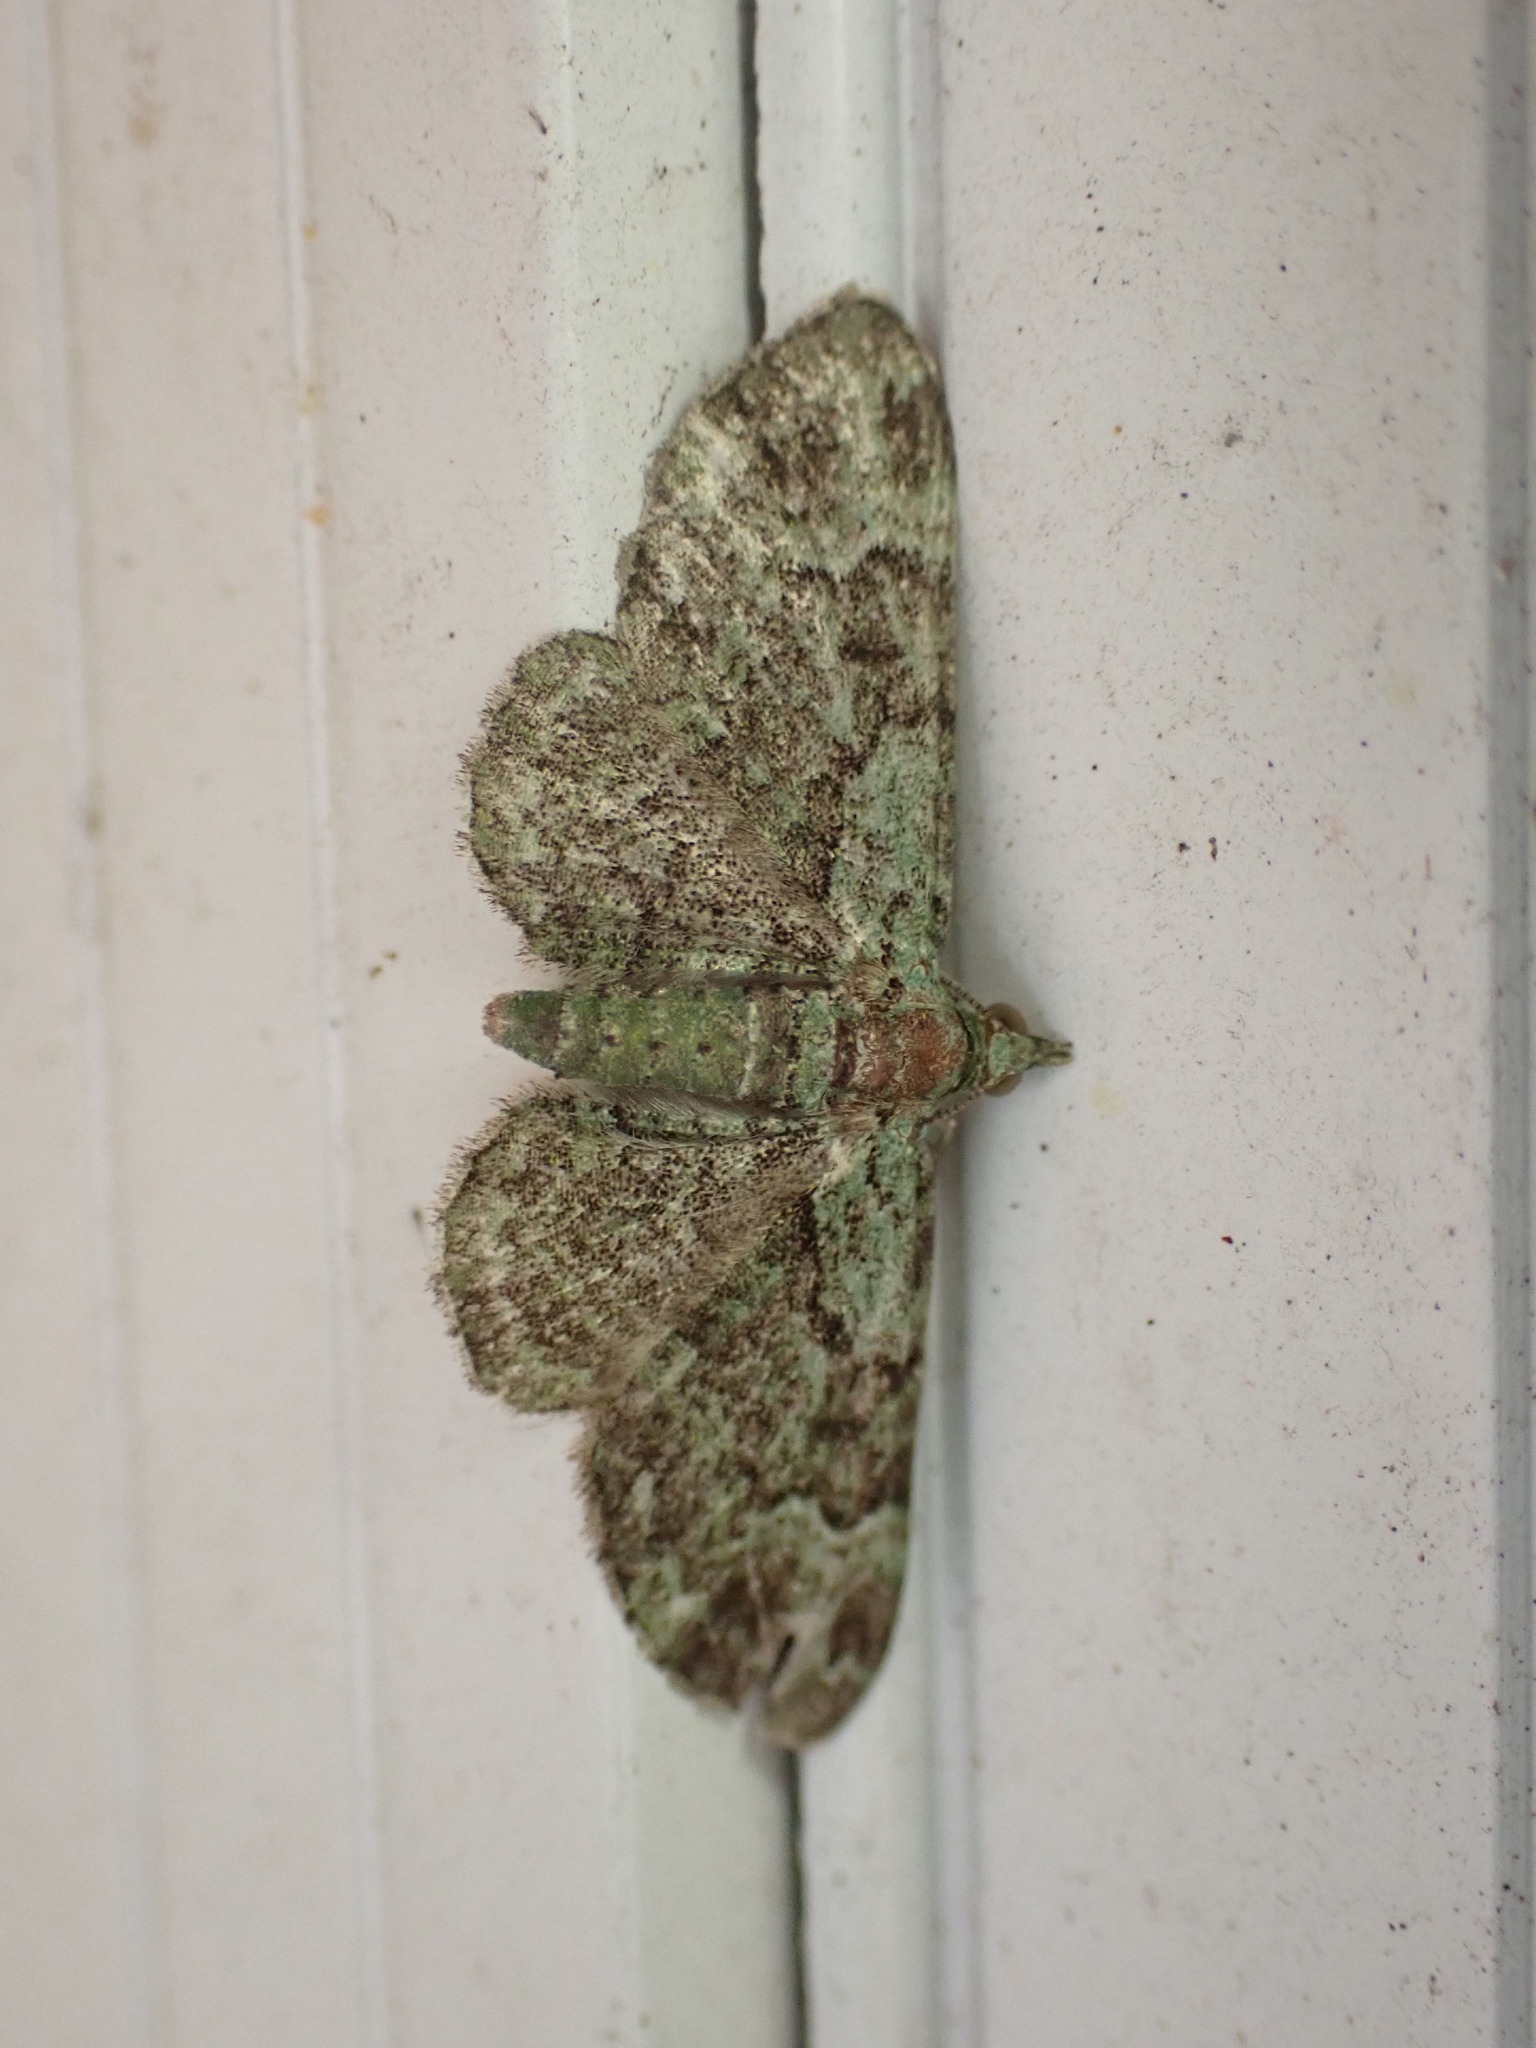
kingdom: Animalia
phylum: Arthropoda
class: Insecta
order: Lepidoptera
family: Geometridae
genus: Pasiphila
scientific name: Pasiphila rectangulata
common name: Green pug
